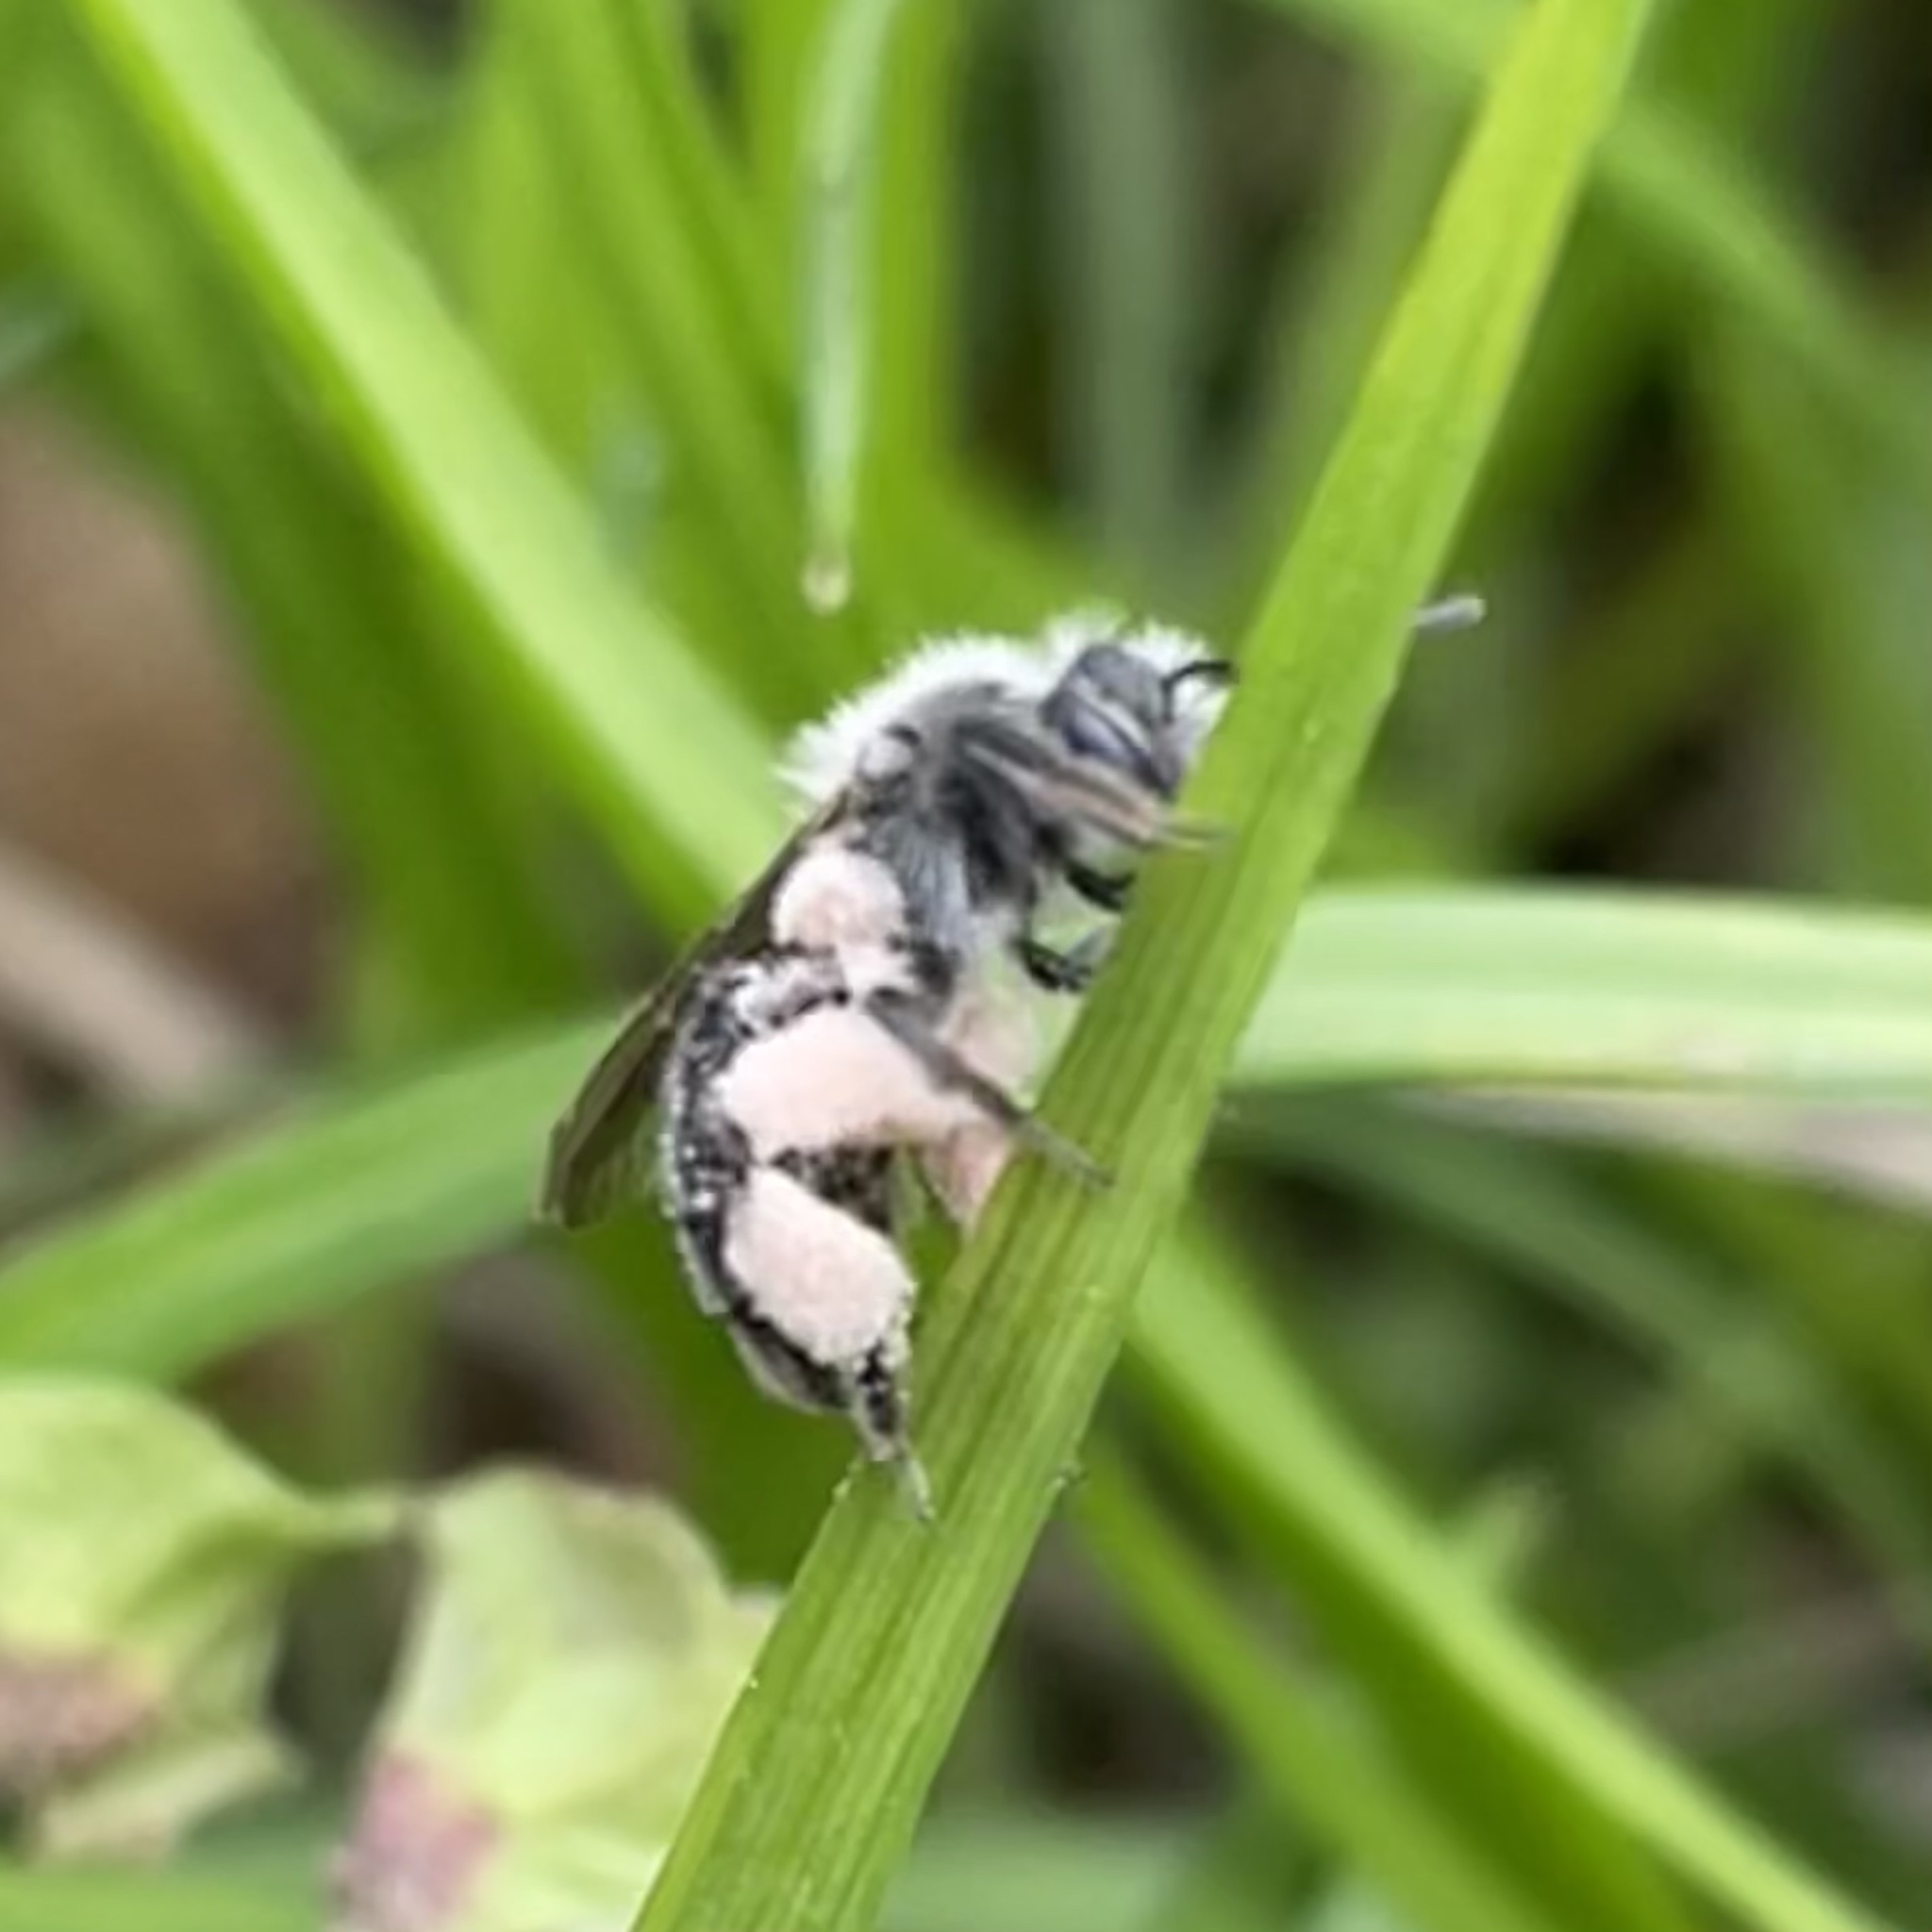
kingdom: Animalia
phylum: Arthropoda
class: Insecta
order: Hymenoptera
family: Andrenidae
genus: Andrena
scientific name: Andrena erigeniae
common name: Spring beauty miner
